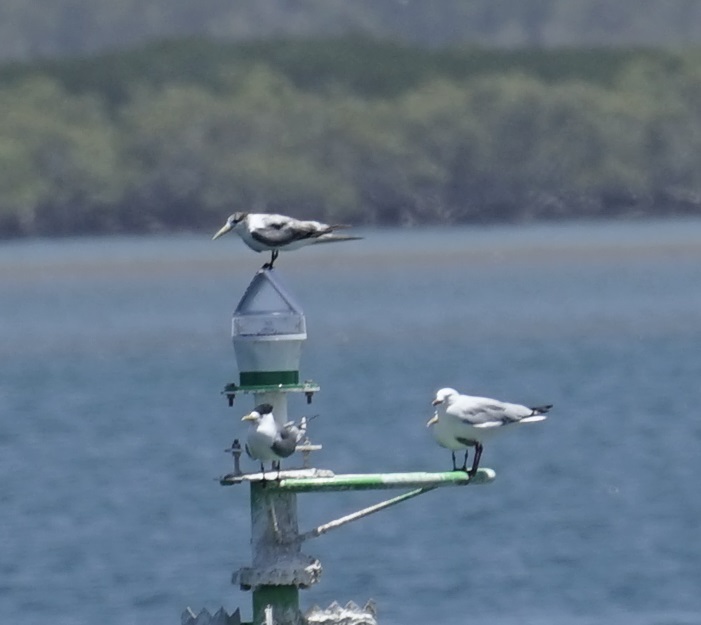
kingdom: Animalia
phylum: Chordata
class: Aves
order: Charadriiformes
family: Laridae
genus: Thalasseus
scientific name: Thalasseus bergii
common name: Greater crested tern
